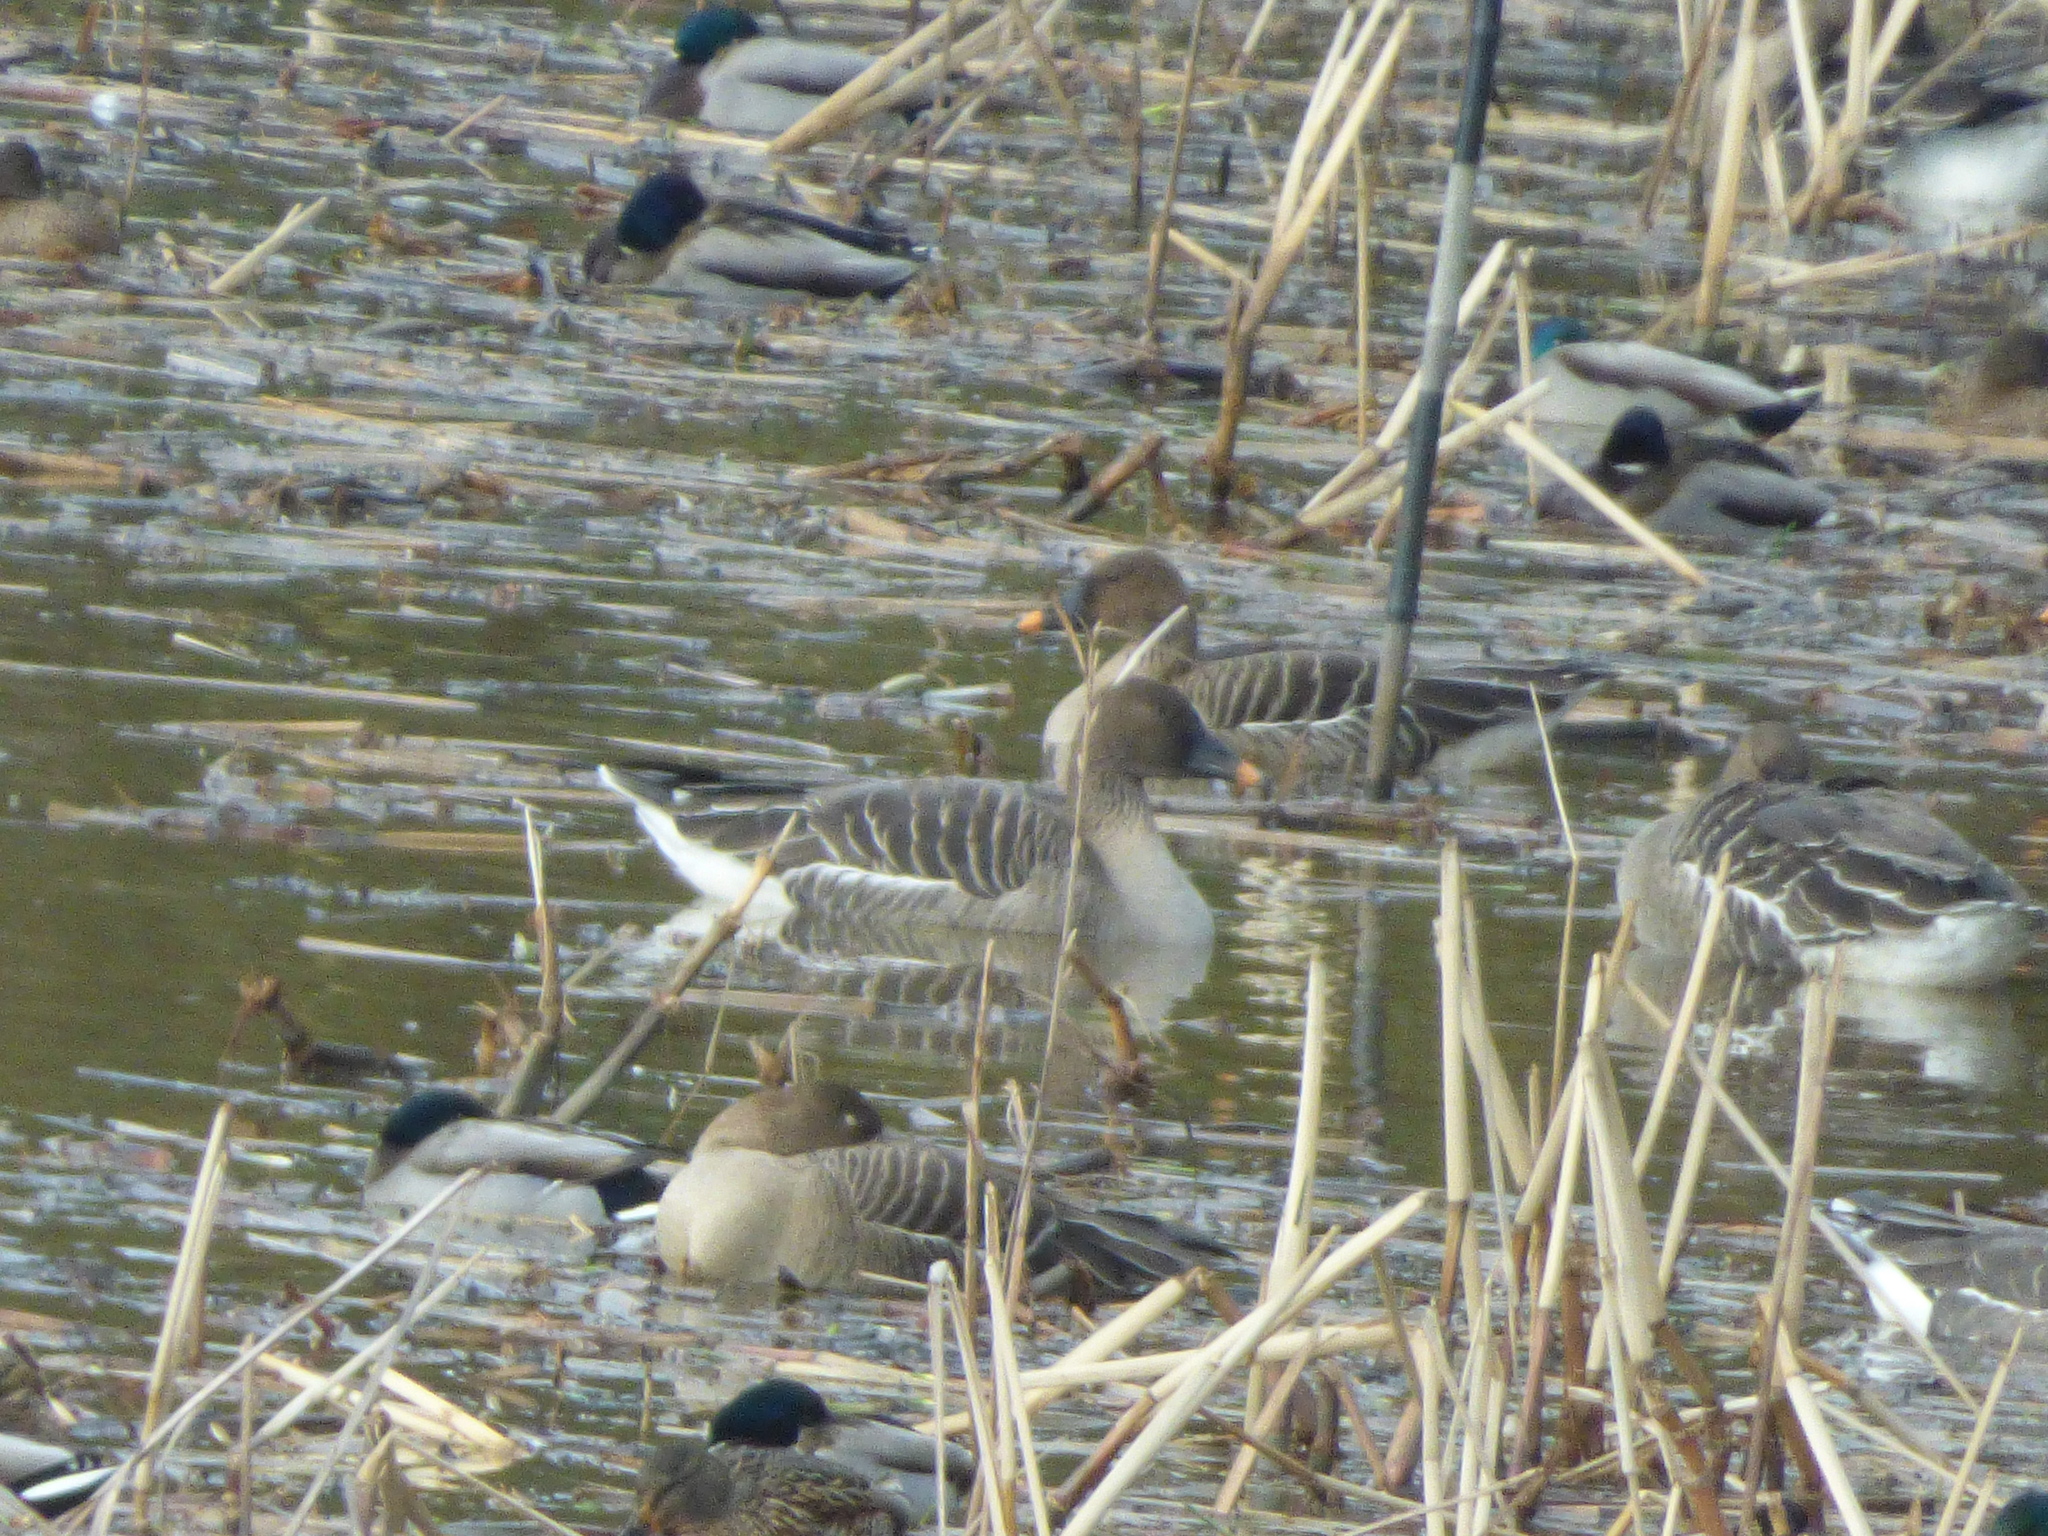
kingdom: Animalia
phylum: Chordata
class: Aves
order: Anseriformes
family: Anatidae
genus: Anser
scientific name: Anser fabalis
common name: Bean goose
